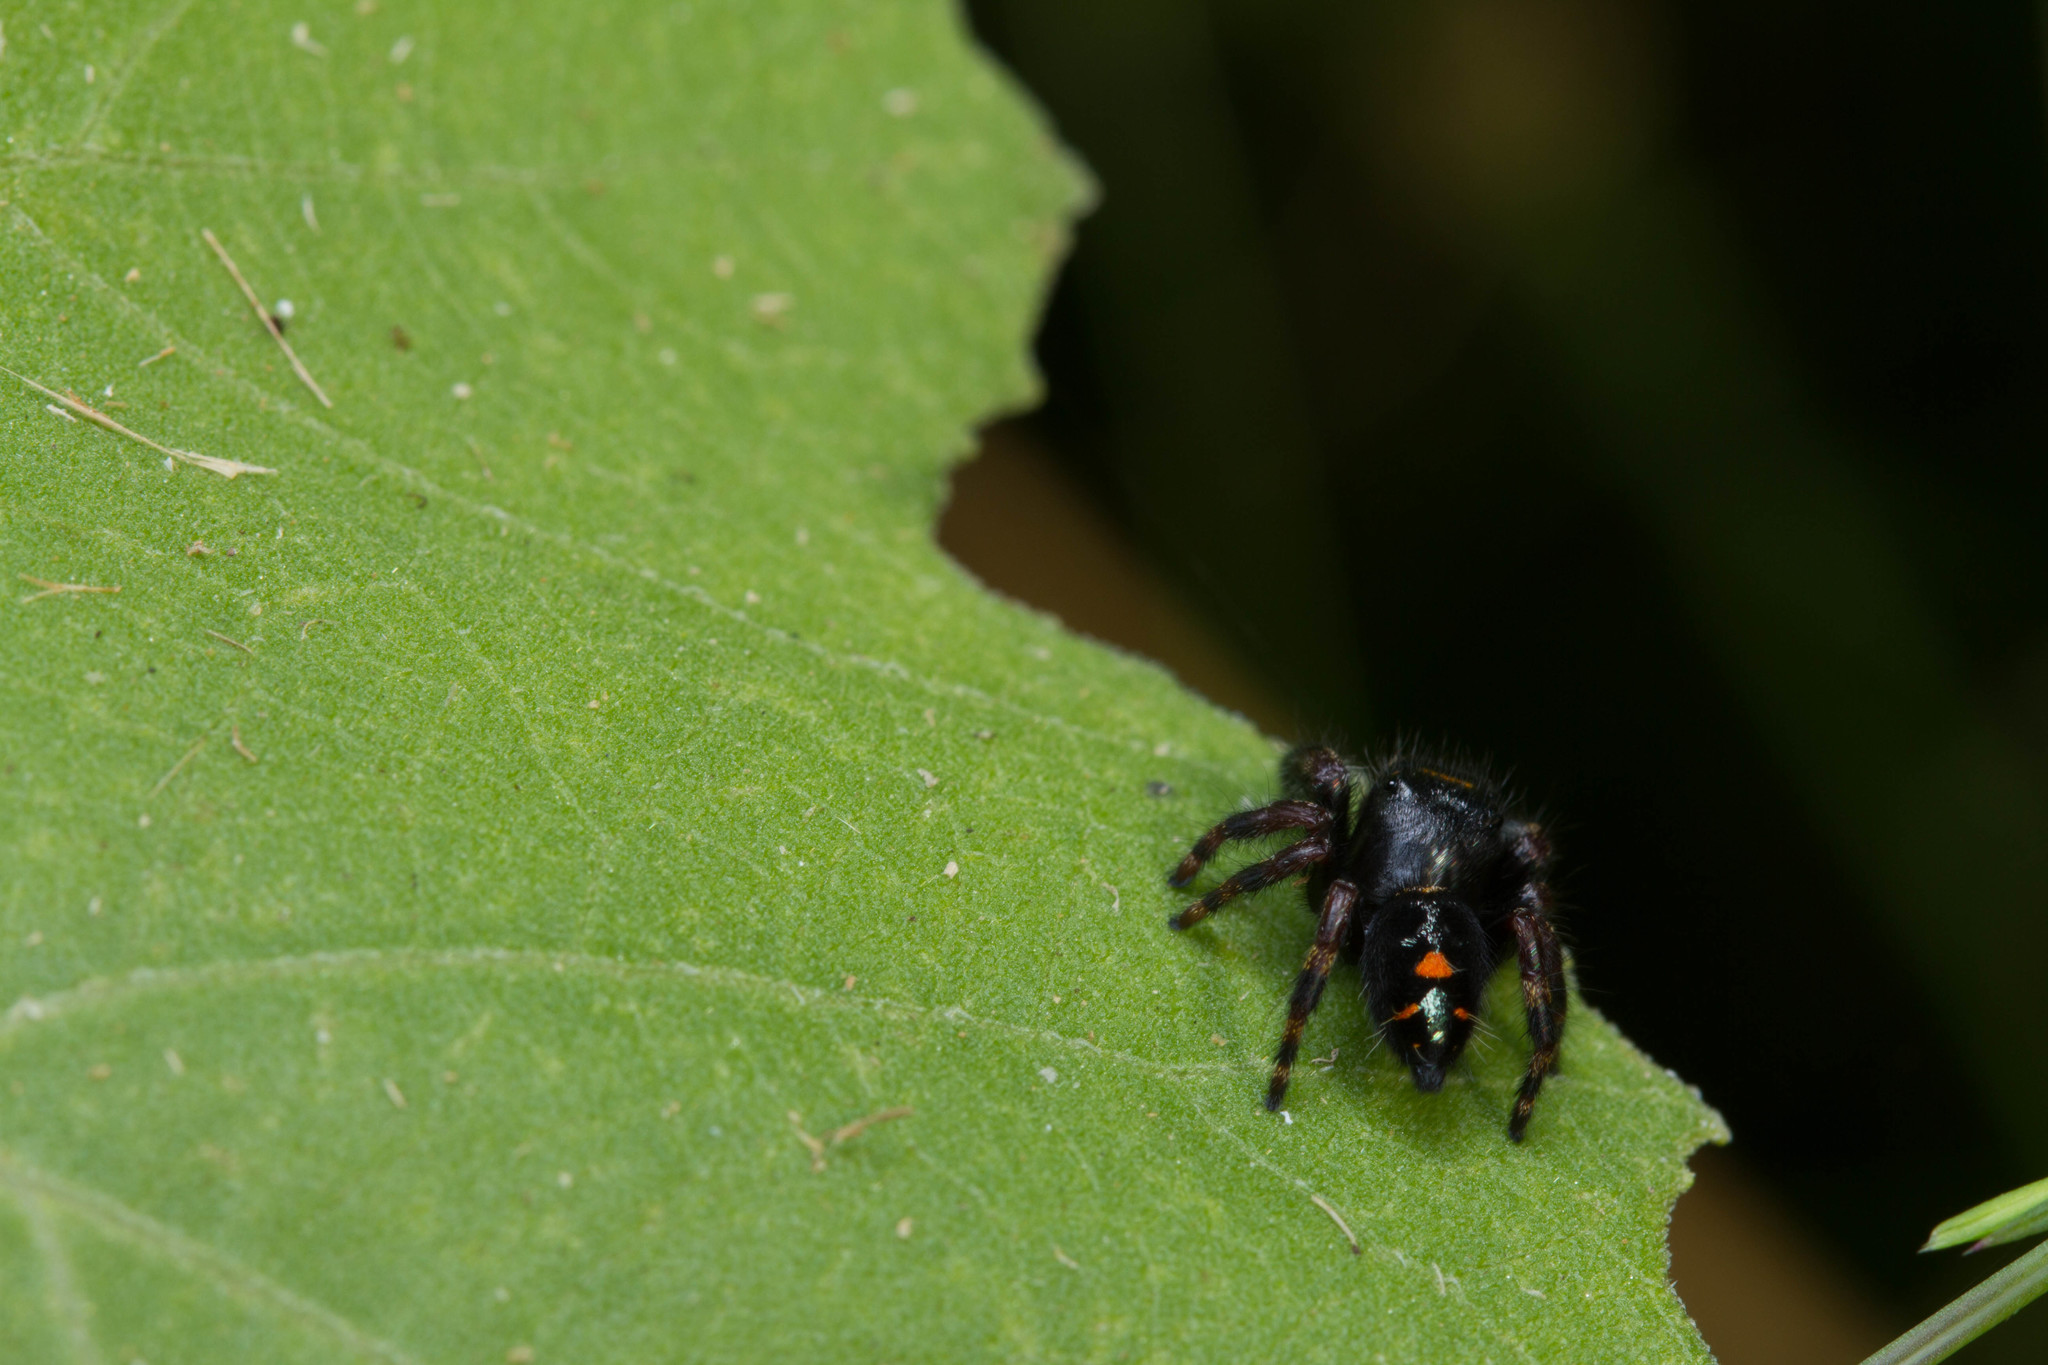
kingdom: Animalia
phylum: Arthropoda
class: Arachnida
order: Araneae
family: Salticidae
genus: Phidippus
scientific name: Phidippus audax
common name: Bold jumper
